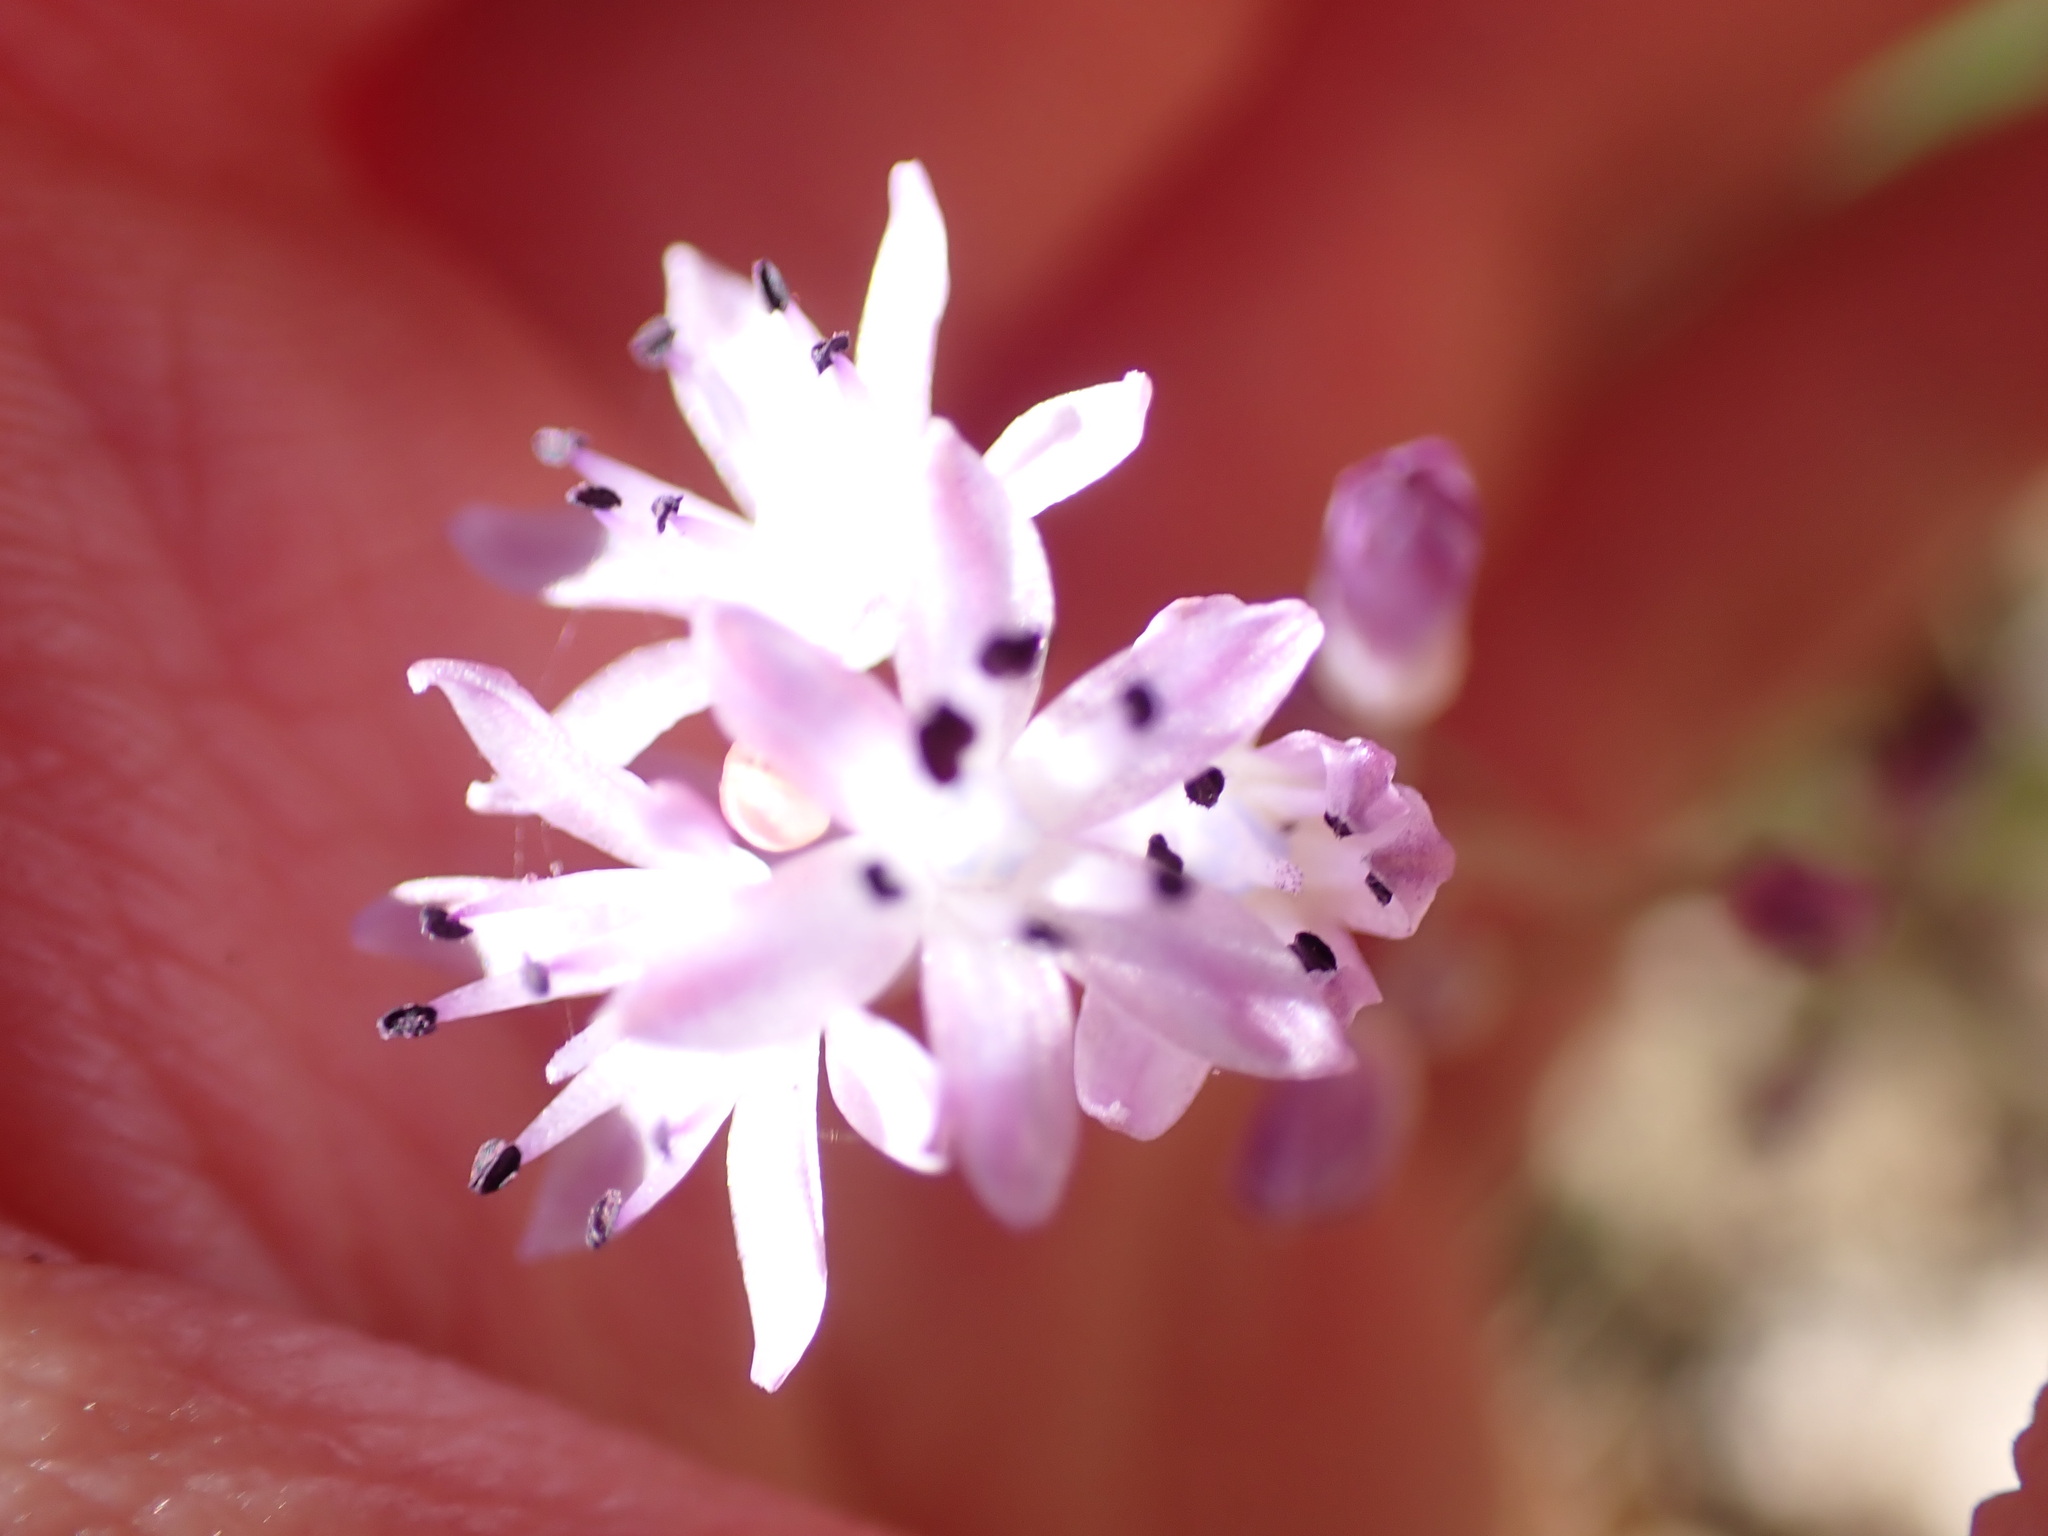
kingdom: Plantae
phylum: Tracheophyta
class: Liliopsida
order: Asparagales
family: Asparagaceae
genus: Prospero
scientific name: Prospero autumnale
